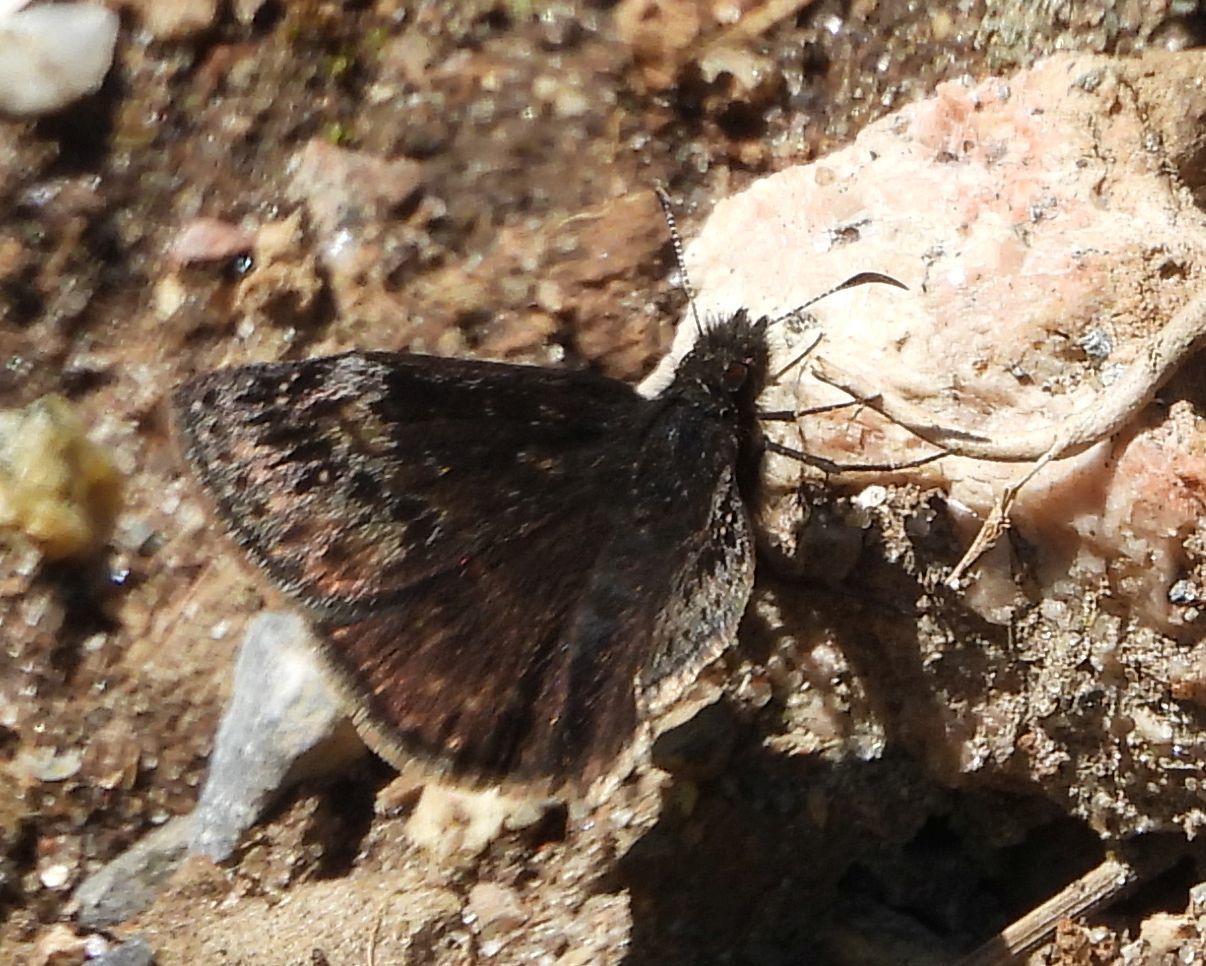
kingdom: Animalia
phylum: Arthropoda
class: Insecta
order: Lepidoptera
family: Hesperiidae
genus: Erynnis
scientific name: Erynnis lucilius
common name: Columbine duskywing
